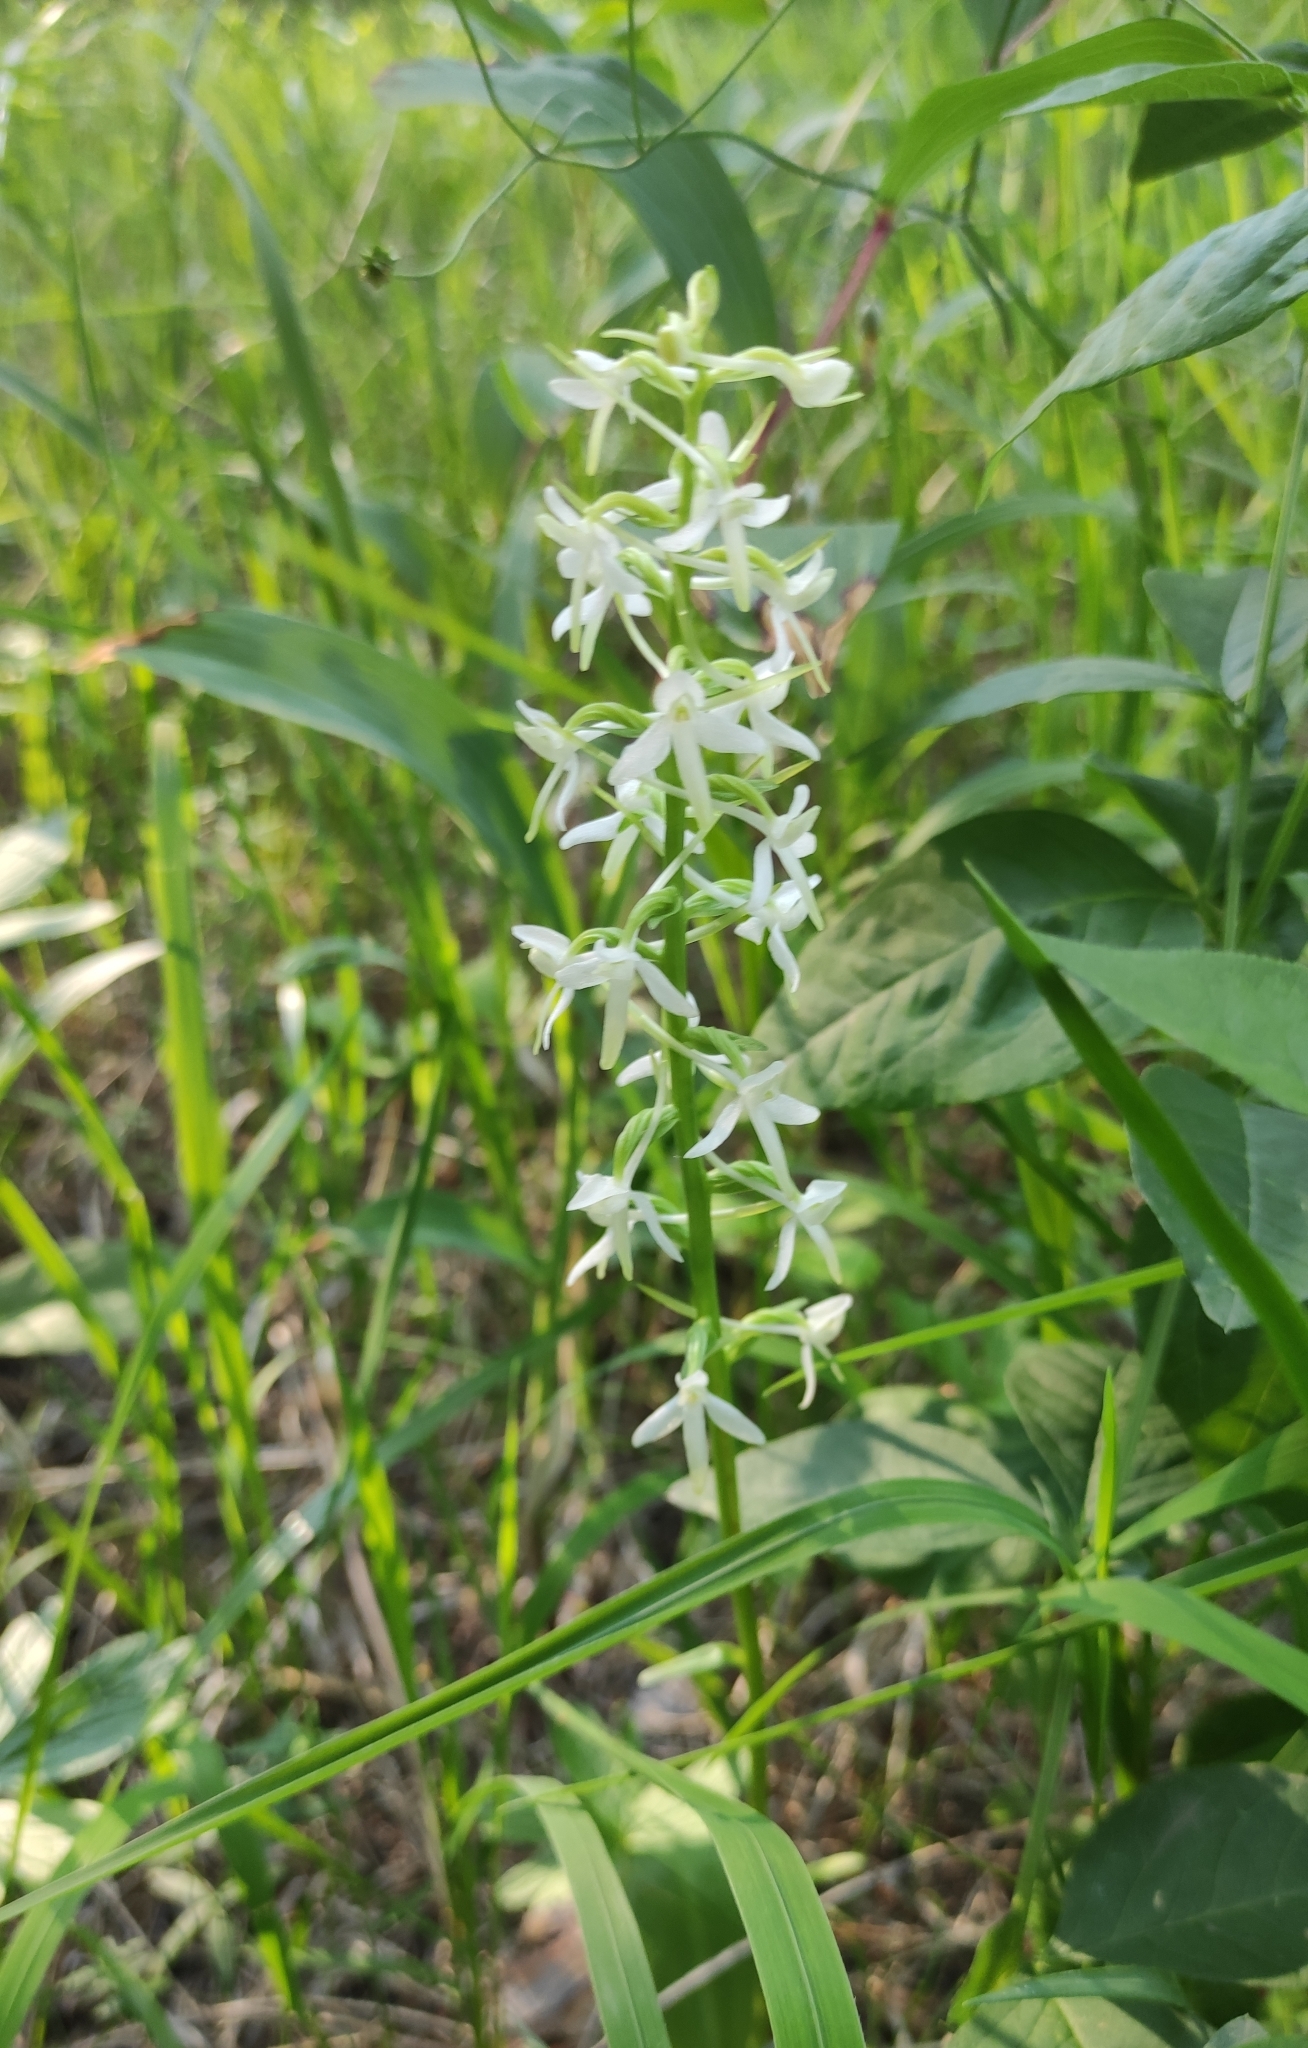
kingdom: Plantae
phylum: Tracheophyta
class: Liliopsida
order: Asparagales
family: Orchidaceae
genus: Platanthera
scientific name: Platanthera bifolia
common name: Lesser butterfly-orchid
